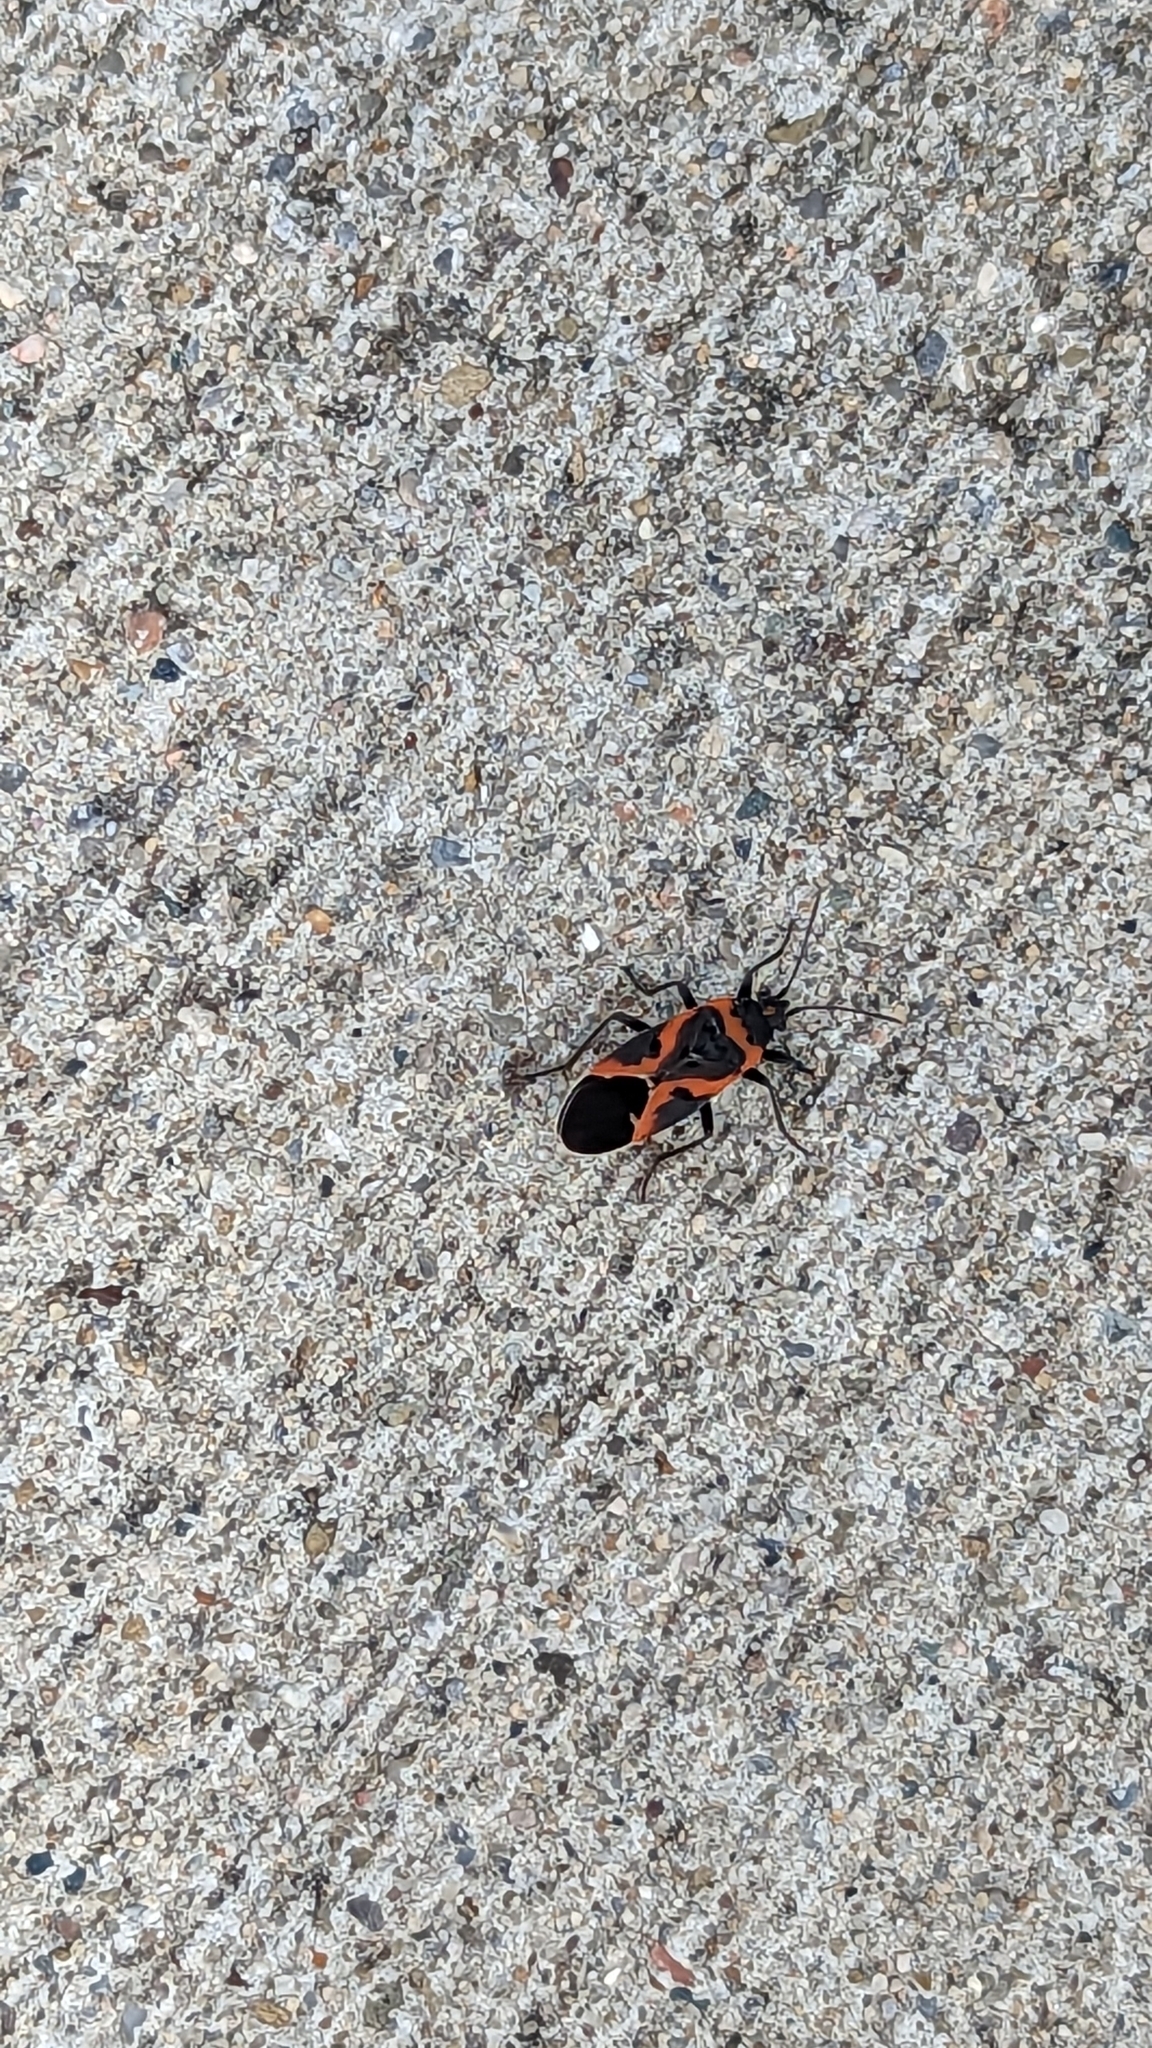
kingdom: Animalia
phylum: Arthropoda
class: Insecta
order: Hemiptera
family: Lygaeidae
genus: Lygaeus
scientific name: Lygaeus kalmii
